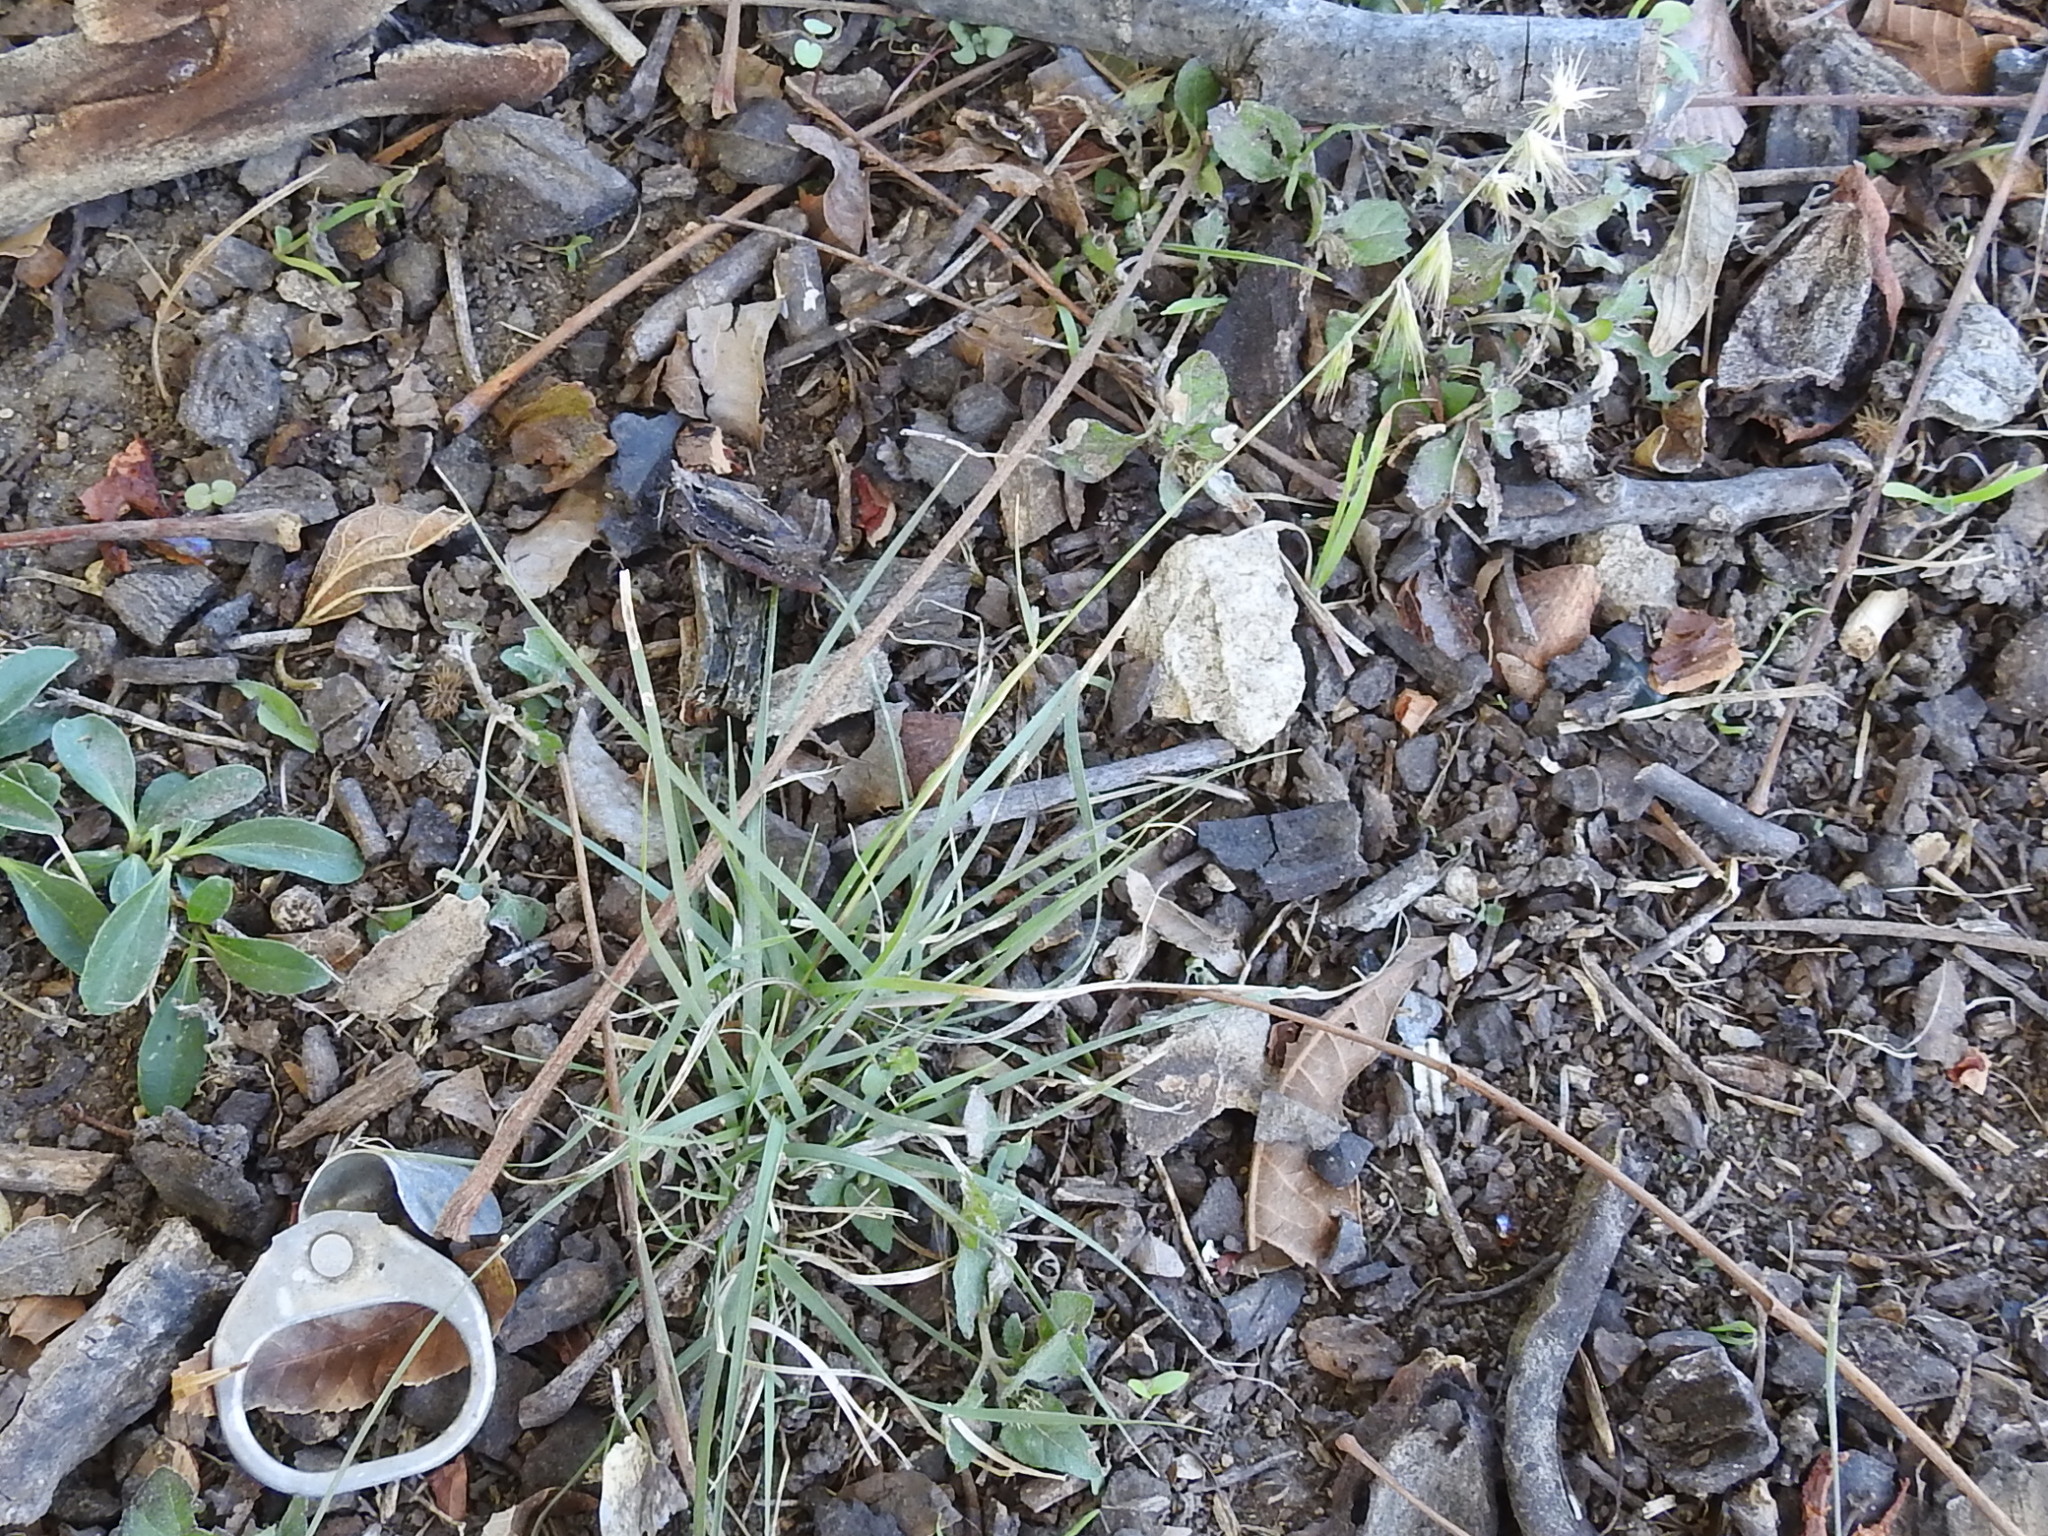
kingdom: Plantae
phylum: Tracheophyta
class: Liliopsida
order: Poales
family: Poaceae
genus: Bouteloua
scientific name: Bouteloua rigidiseta
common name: Texas grama
